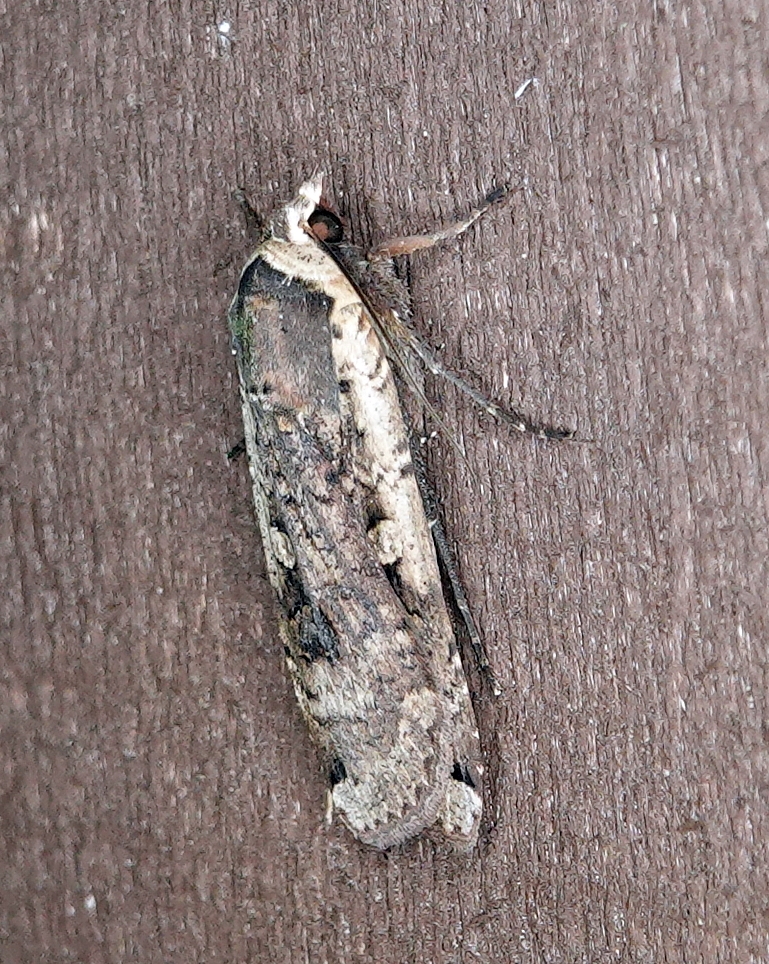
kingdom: Animalia
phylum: Arthropoda
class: Insecta
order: Lepidoptera
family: Noctuidae
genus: Noctua
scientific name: Noctua pronuba
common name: Large yellow underwing
